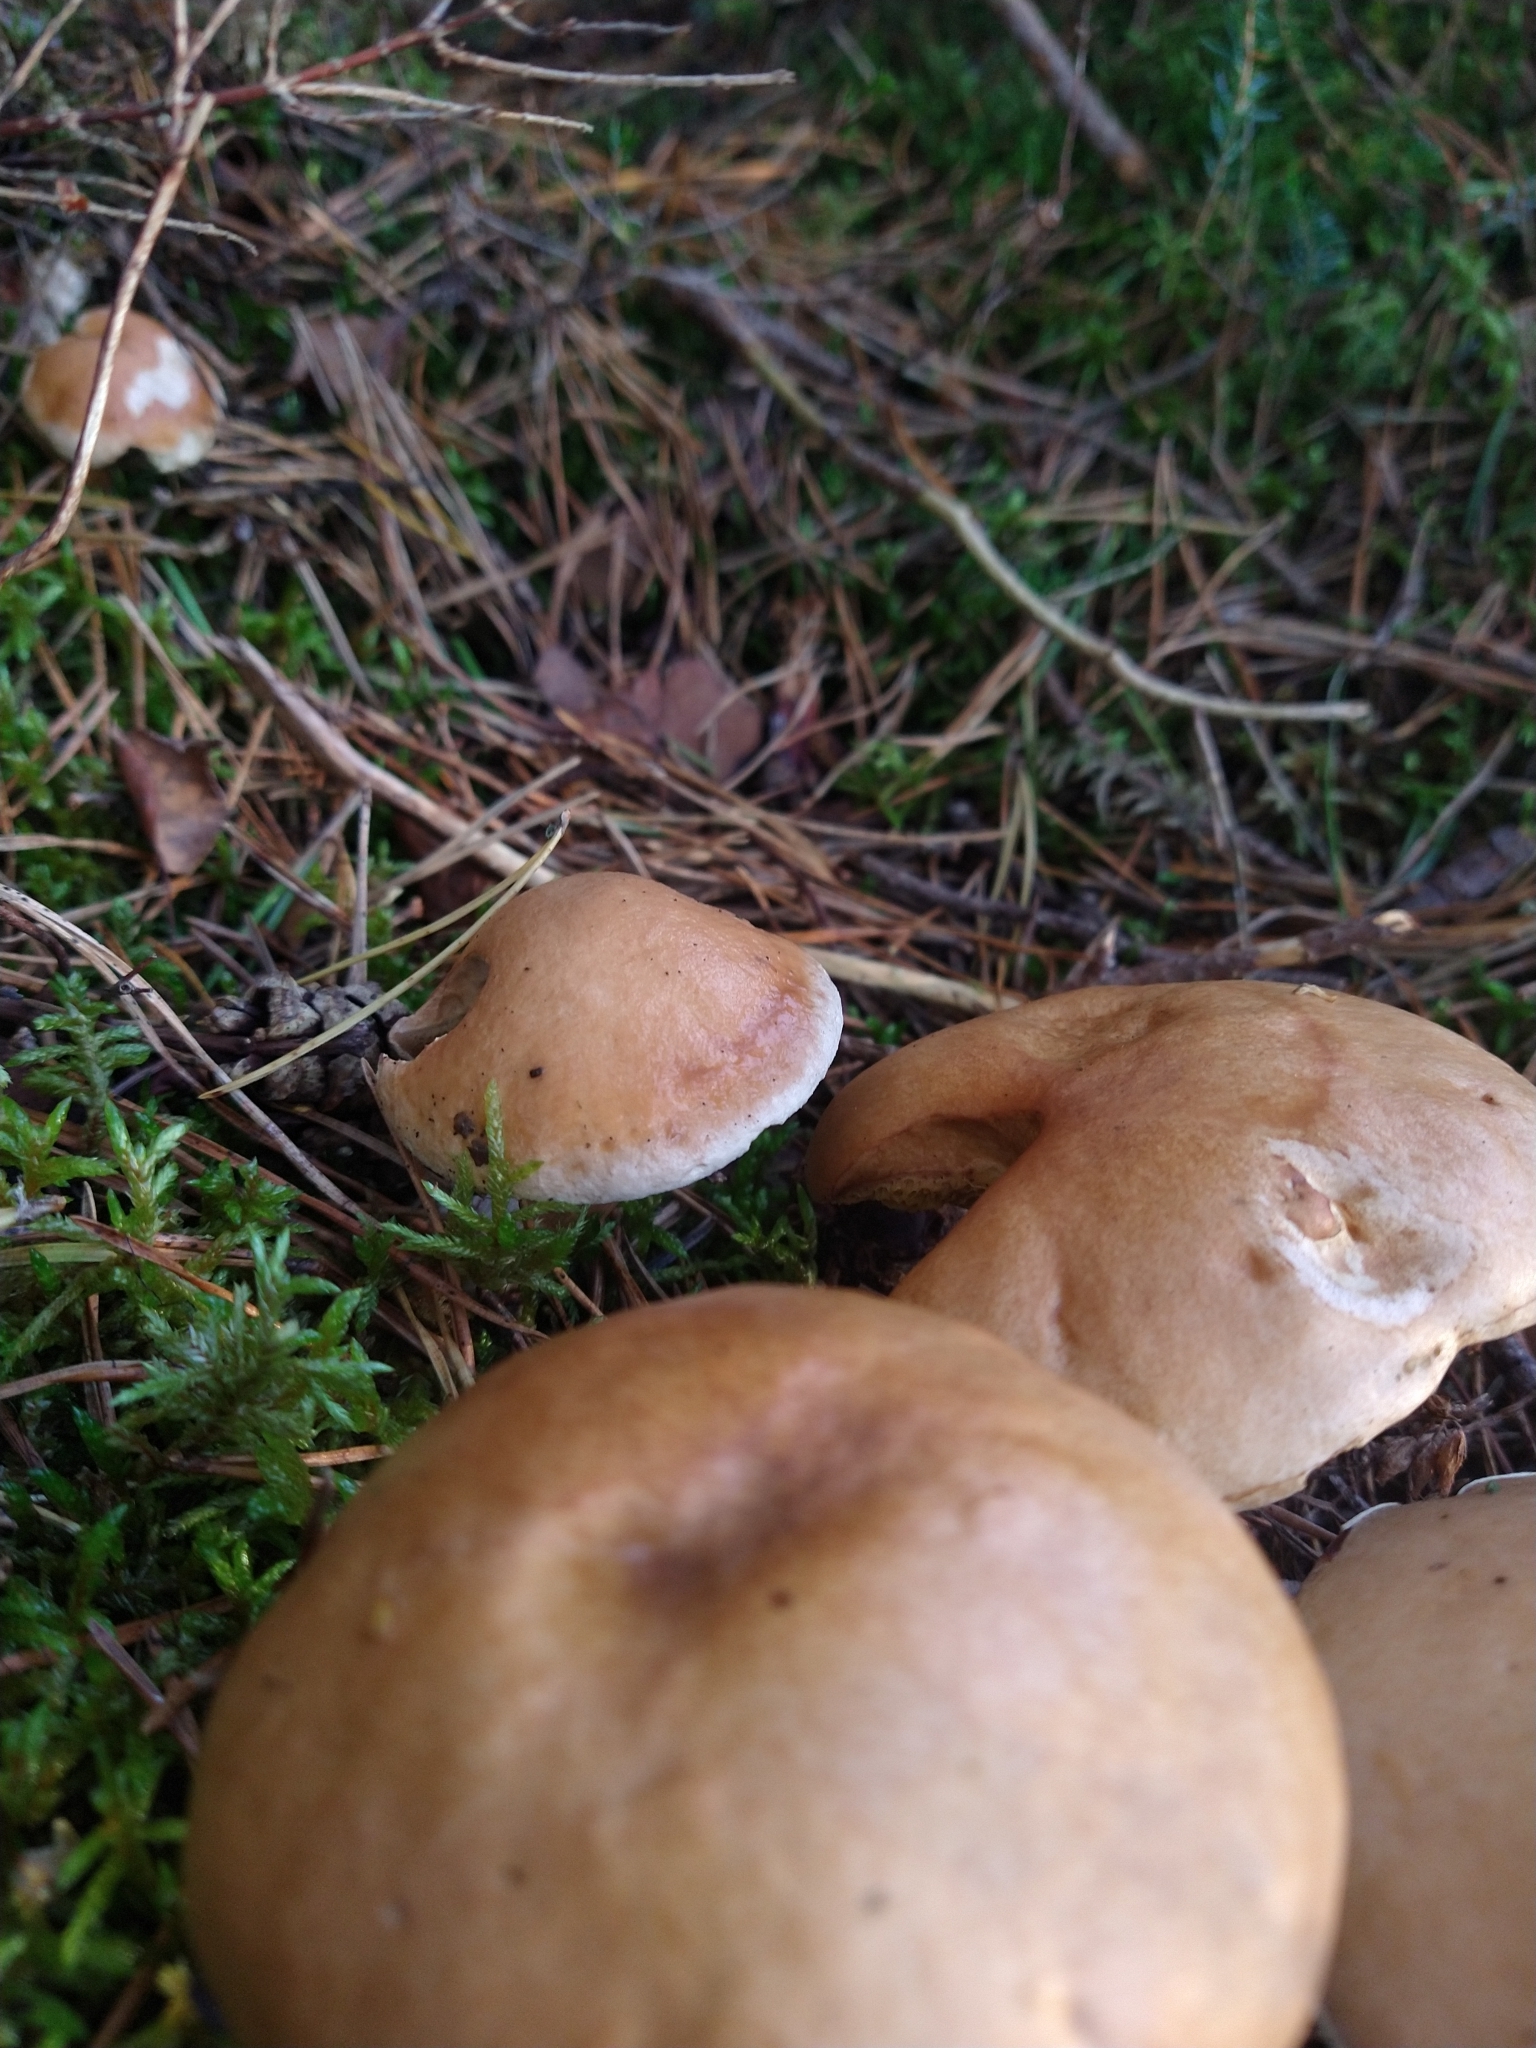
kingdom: Fungi
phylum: Basidiomycota
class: Agaricomycetes
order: Boletales
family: Suillaceae
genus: Suillus
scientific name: Suillus bovinus
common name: Bovine bolete
